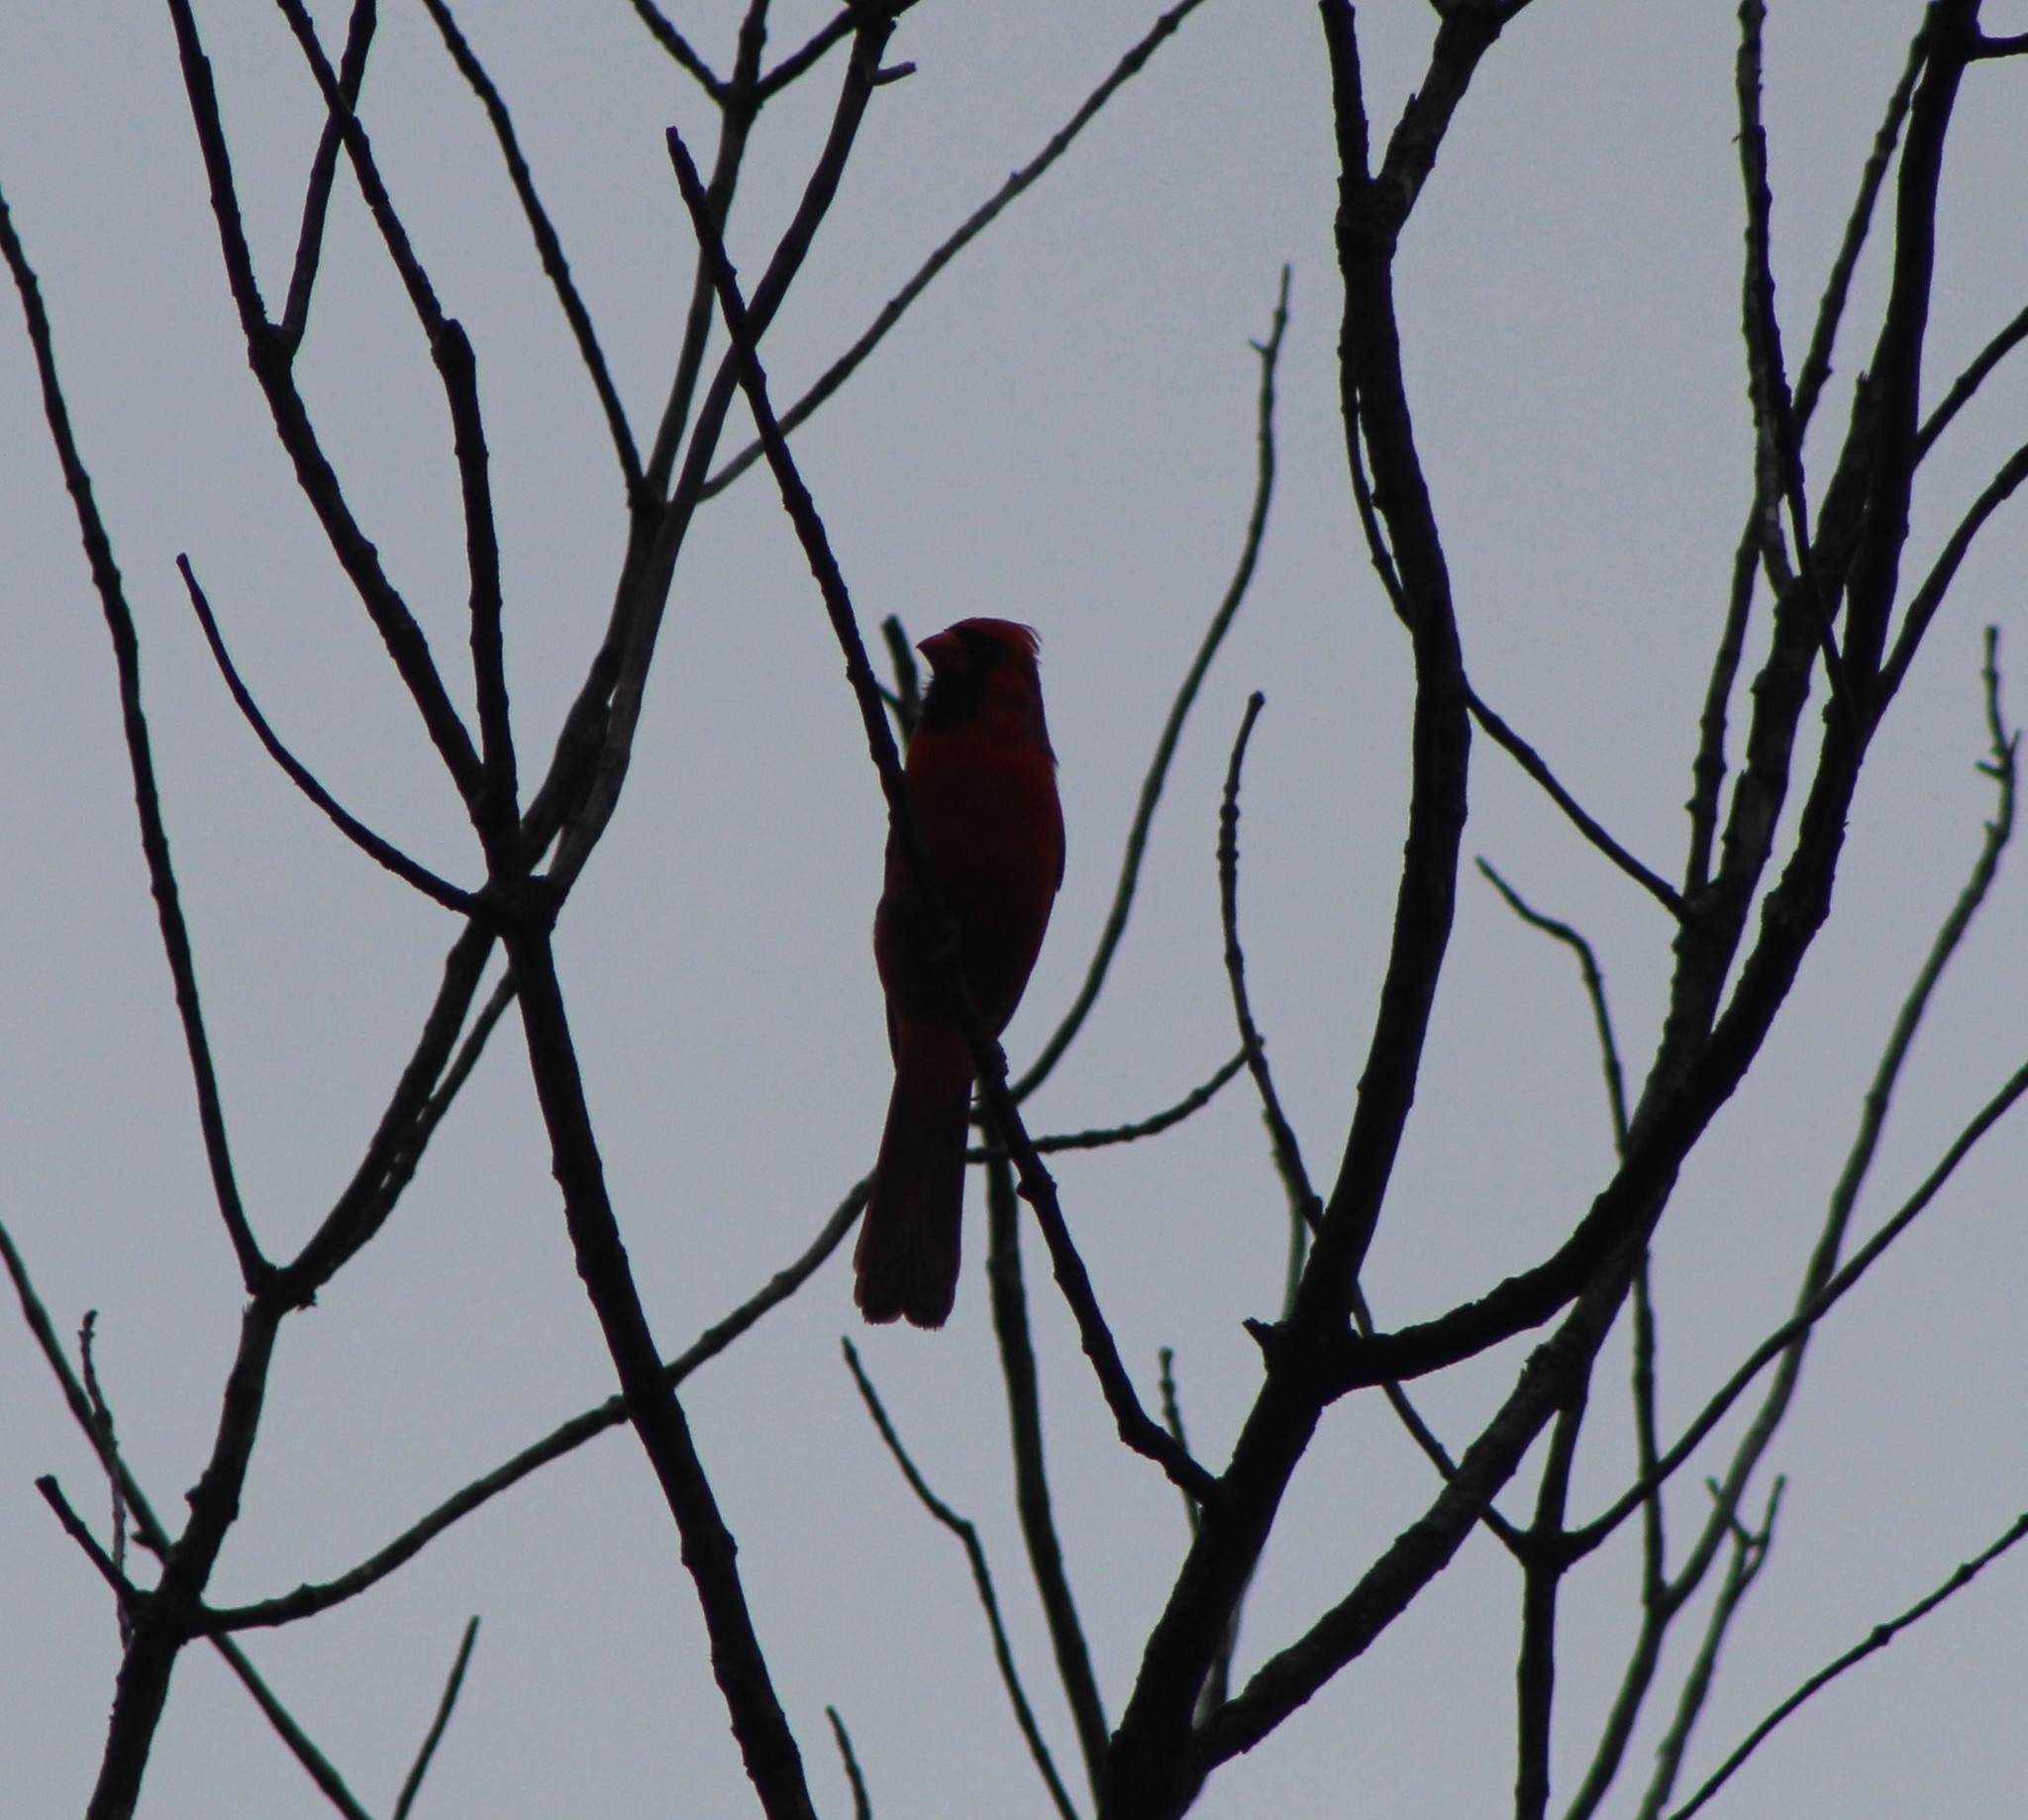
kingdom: Animalia
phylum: Chordata
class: Aves
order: Passeriformes
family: Cardinalidae
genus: Cardinalis
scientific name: Cardinalis cardinalis
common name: Northern cardinal
